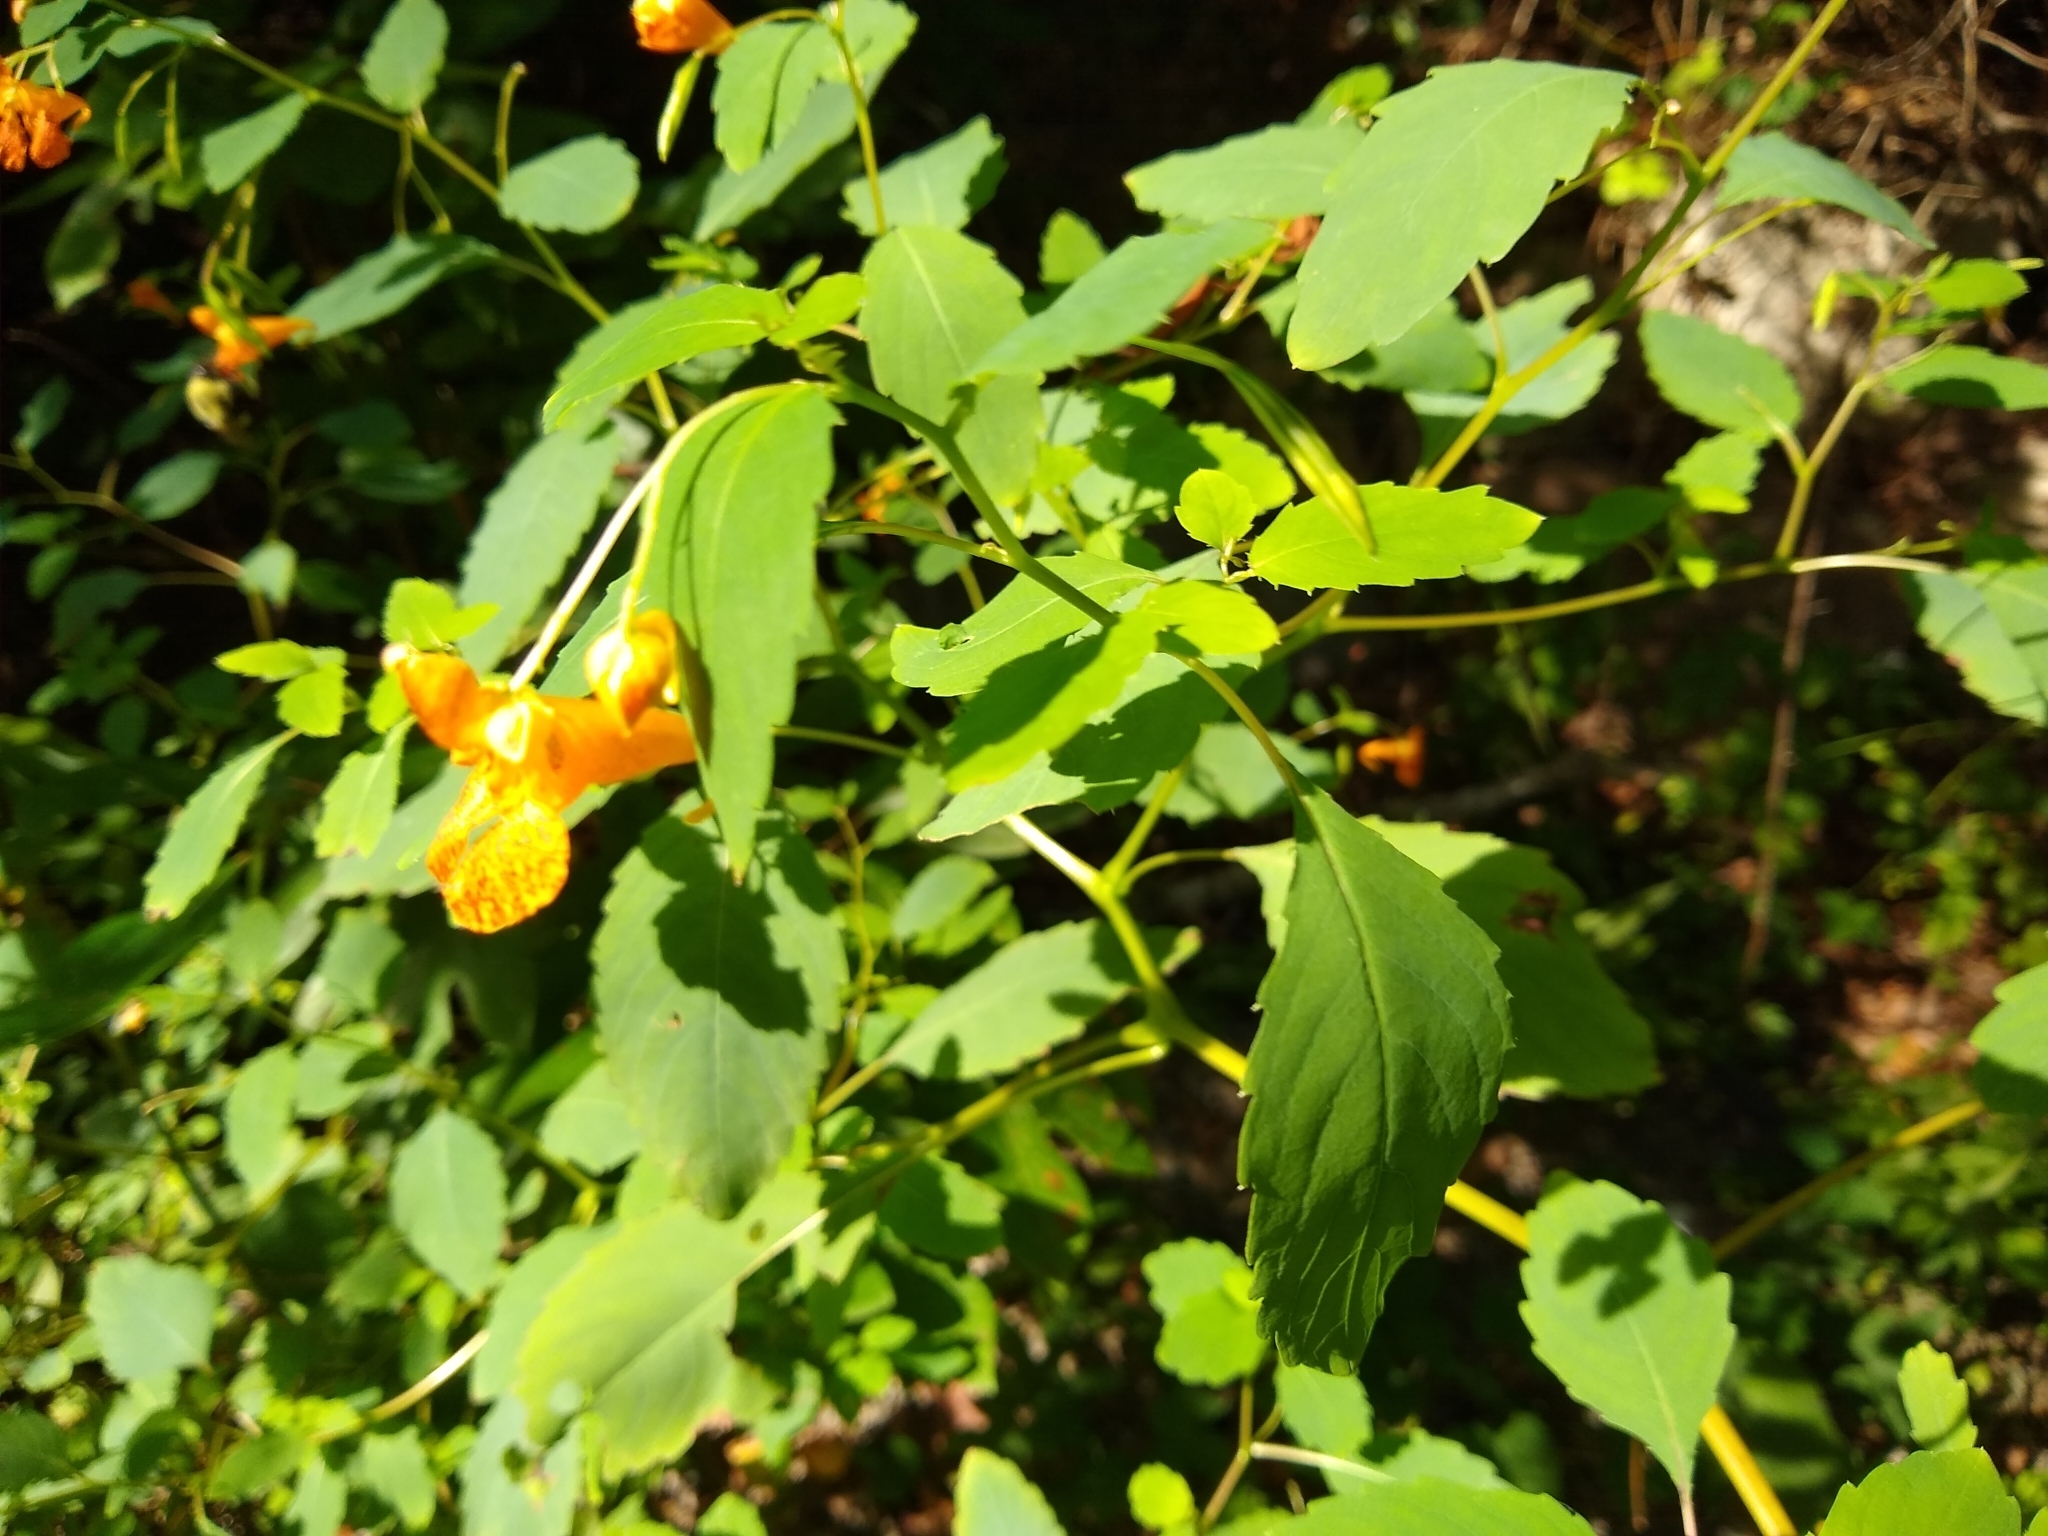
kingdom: Plantae
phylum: Tracheophyta
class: Magnoliopsida
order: Ericales
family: Balsaminaceae
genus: Impatiens
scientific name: Impatiens capensis
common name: Orange balsam
